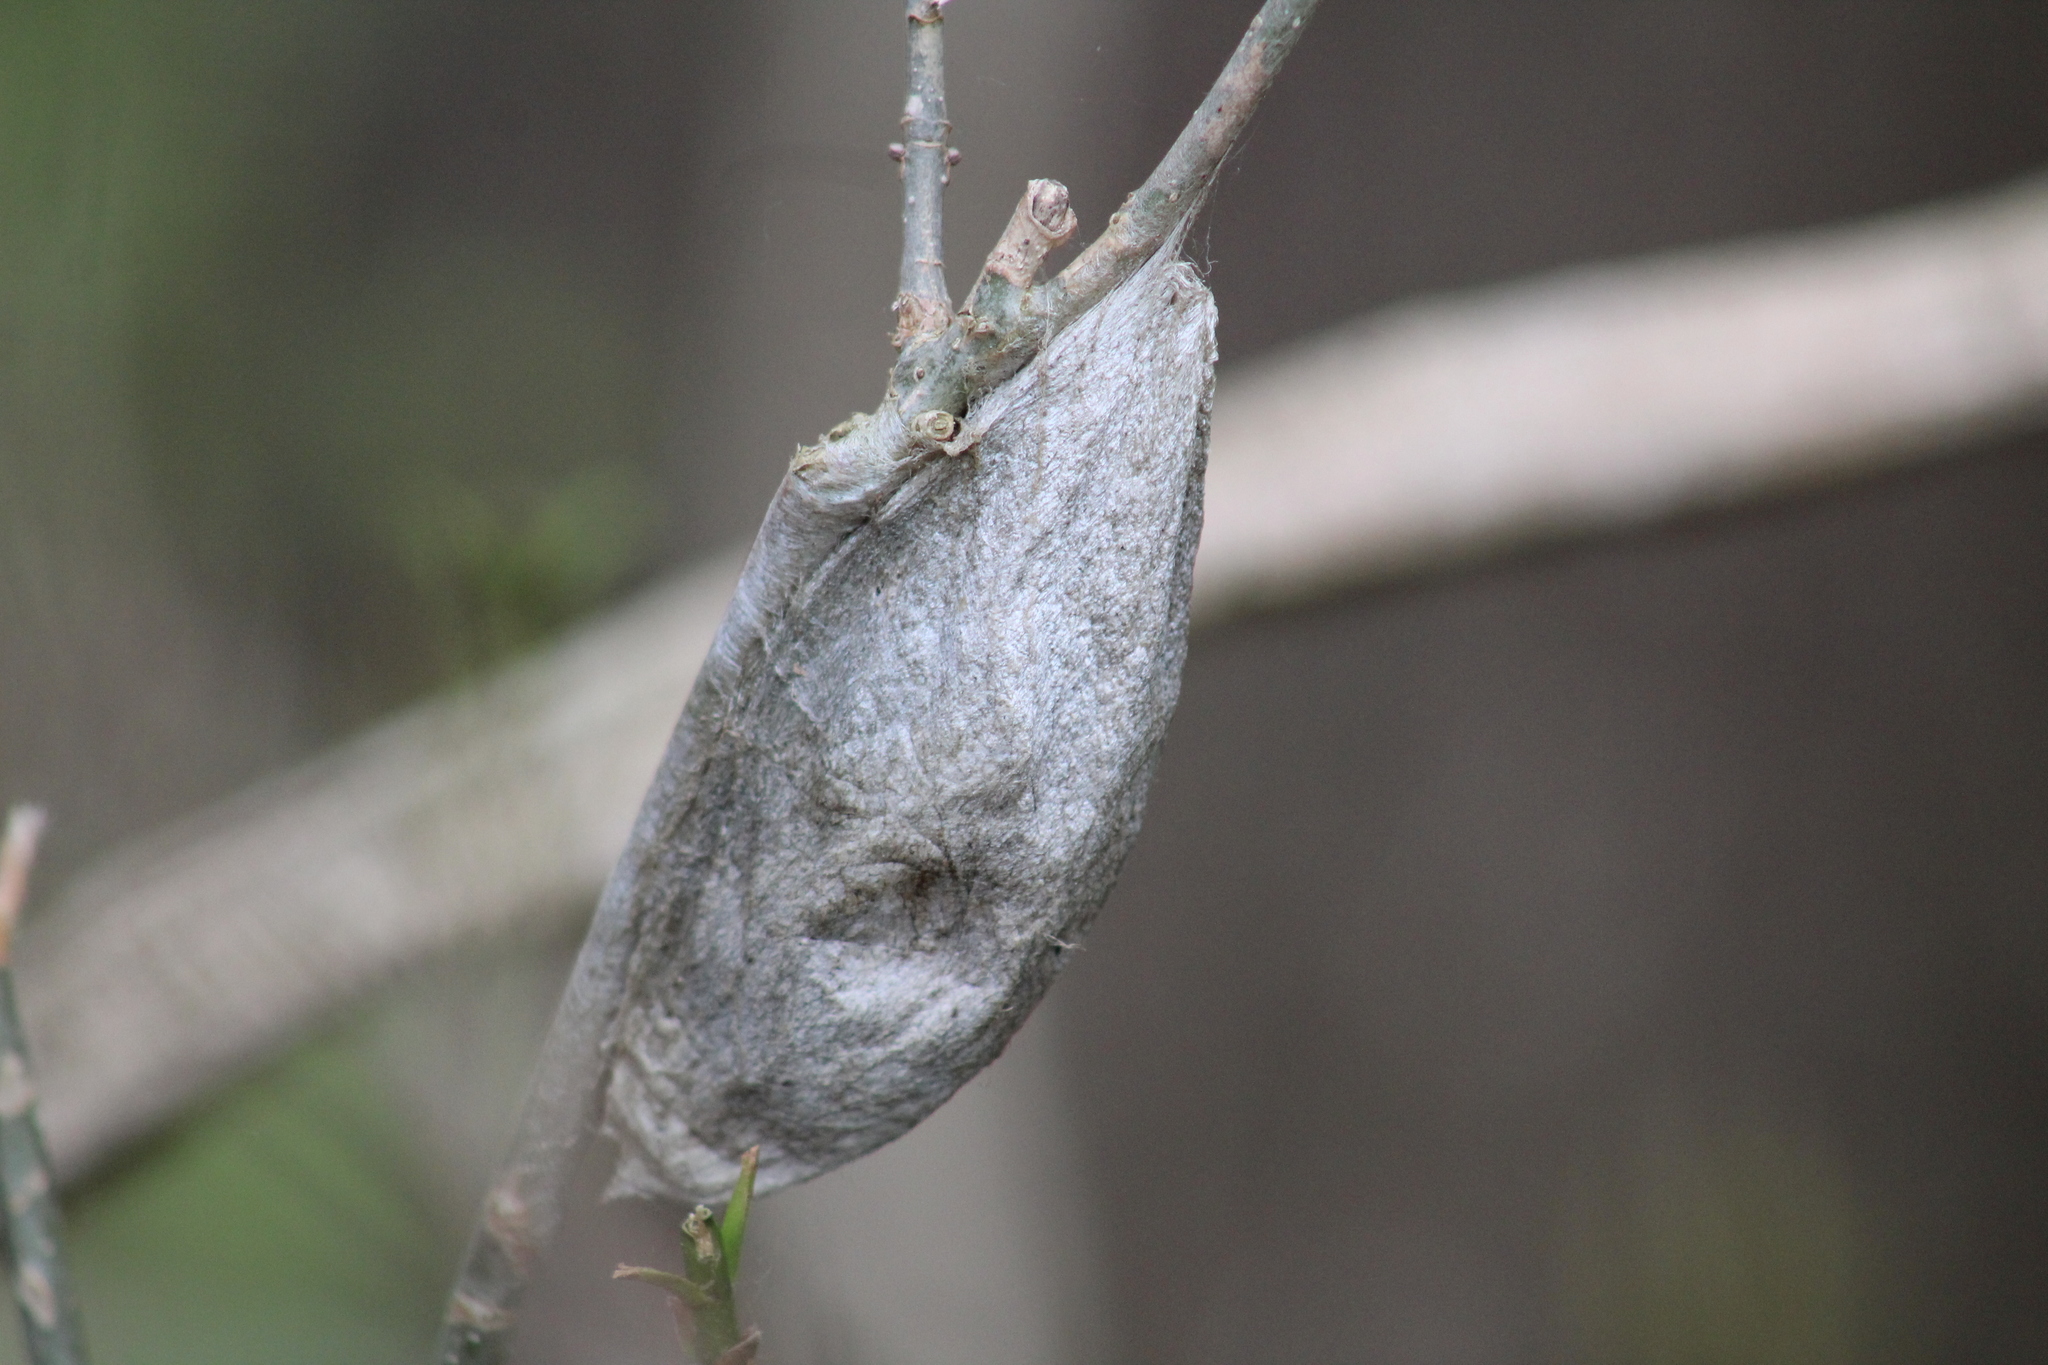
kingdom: Animalia
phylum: Arthropoda
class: Insecta
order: Lepidoptera
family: Saturniidae
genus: Hyalophora
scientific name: Hyalophora cecropia
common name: Cecropia silkmoth
